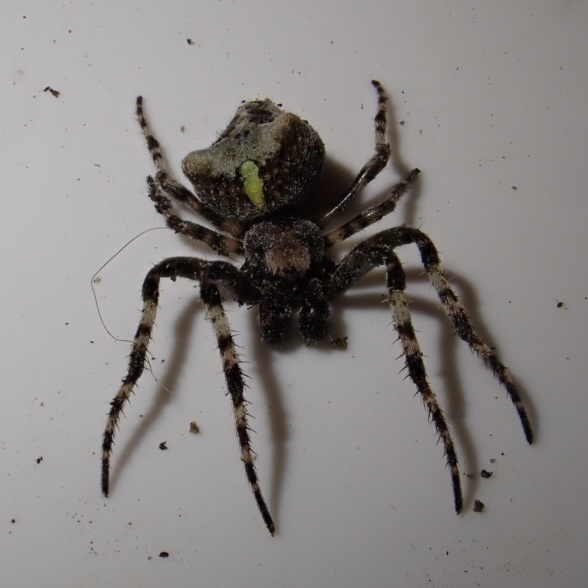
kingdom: Animalia
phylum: Arthropoda
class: Arachnida
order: Araneae
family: Araneidae
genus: Courtaraneus
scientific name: Courtaraneus orientalis
